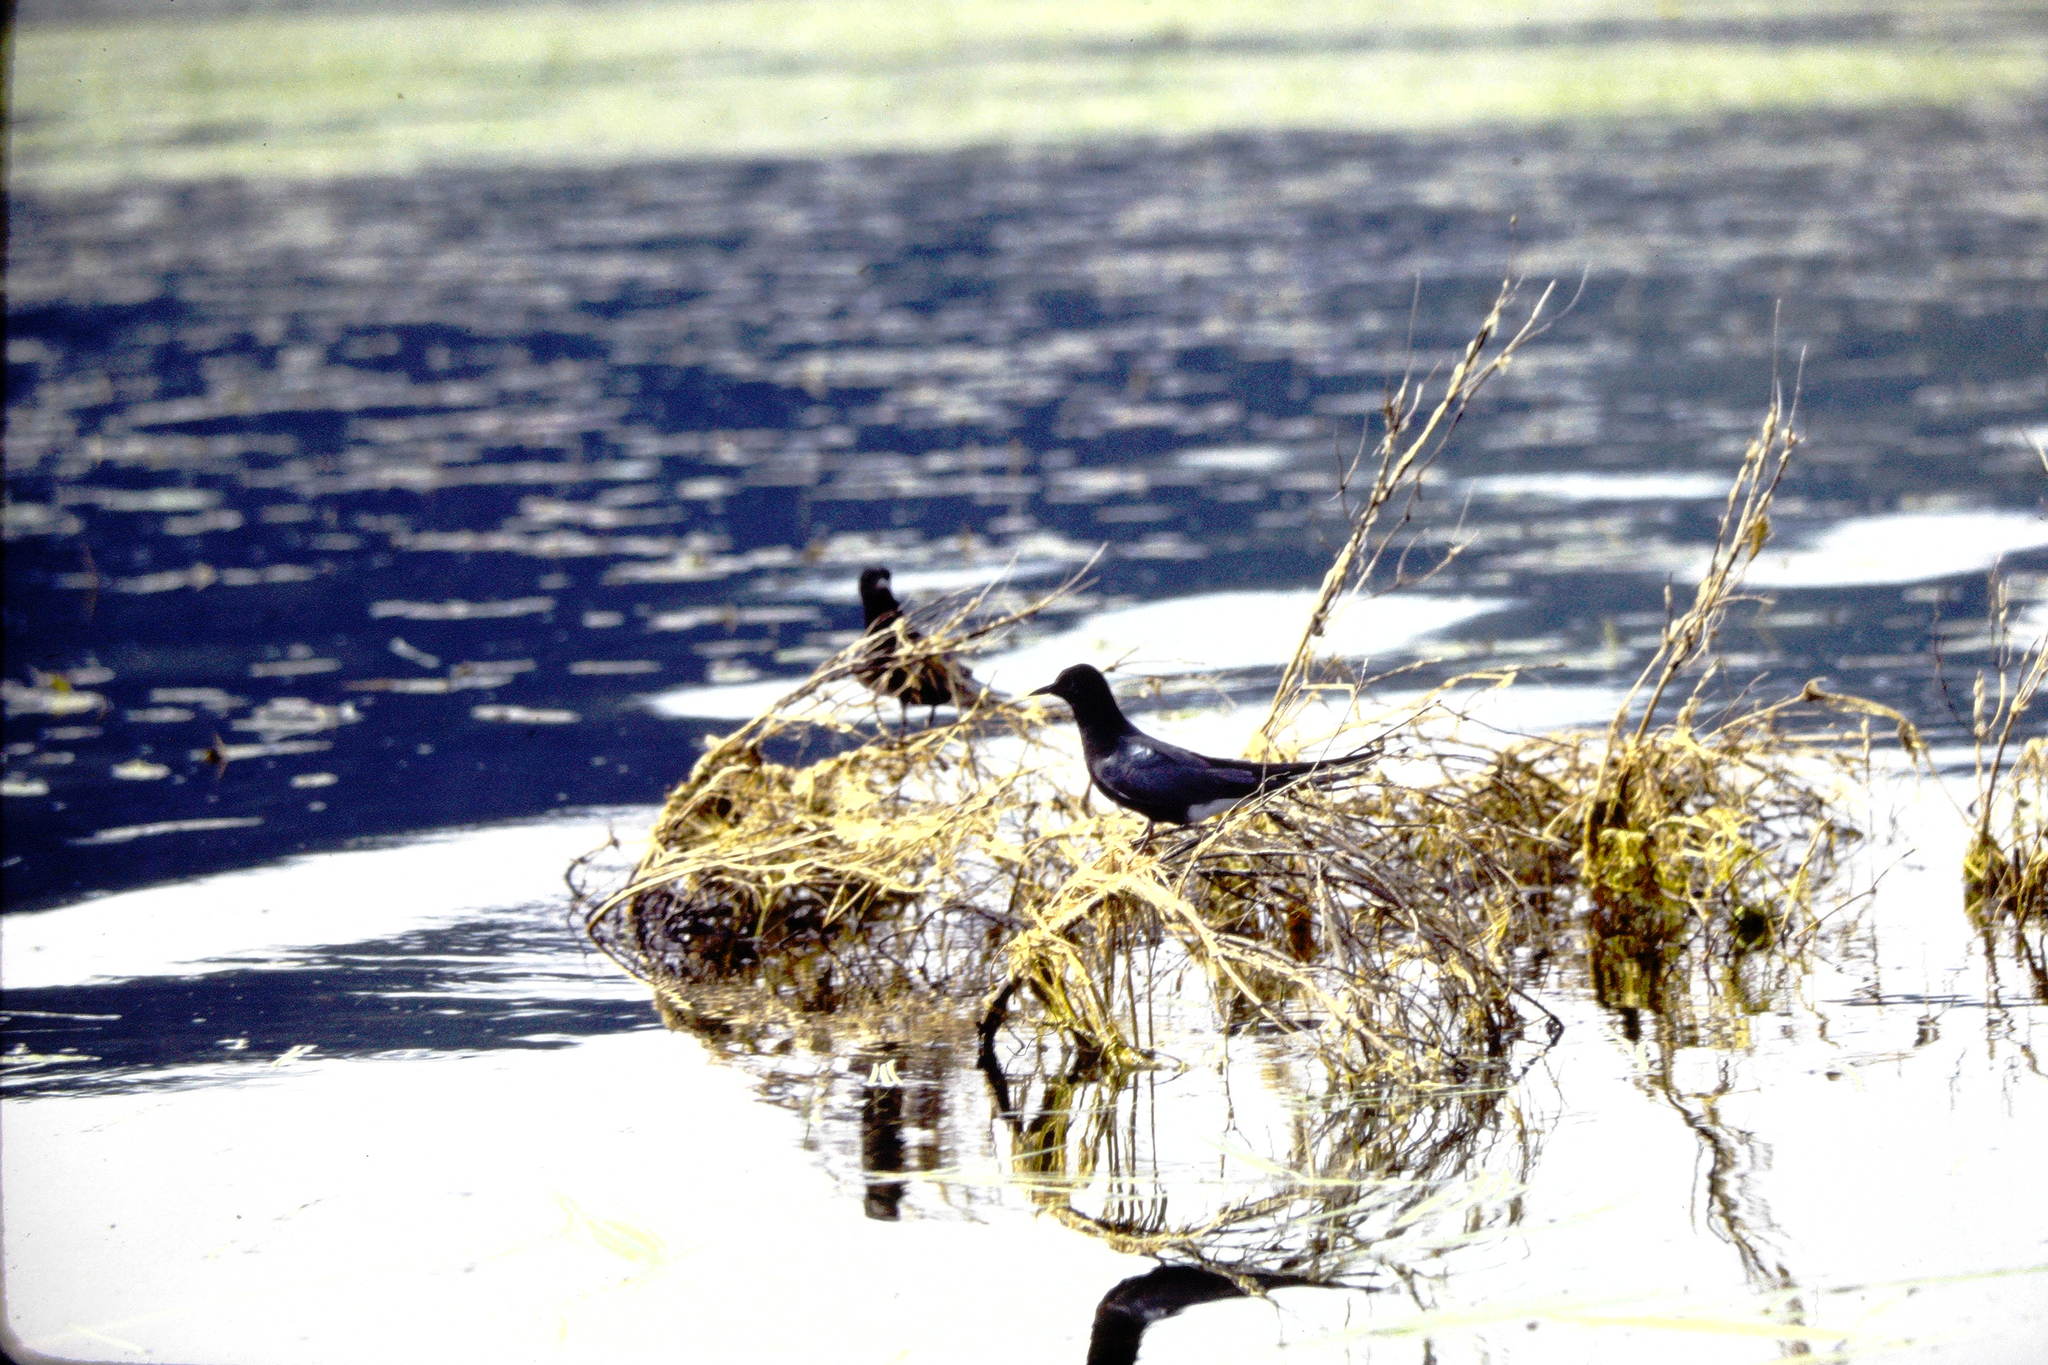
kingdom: Animalia
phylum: Chordata
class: Aves
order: Charadriiformes
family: Laridae
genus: Chlidonias
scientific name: Chlidonias niger
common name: Black tern
